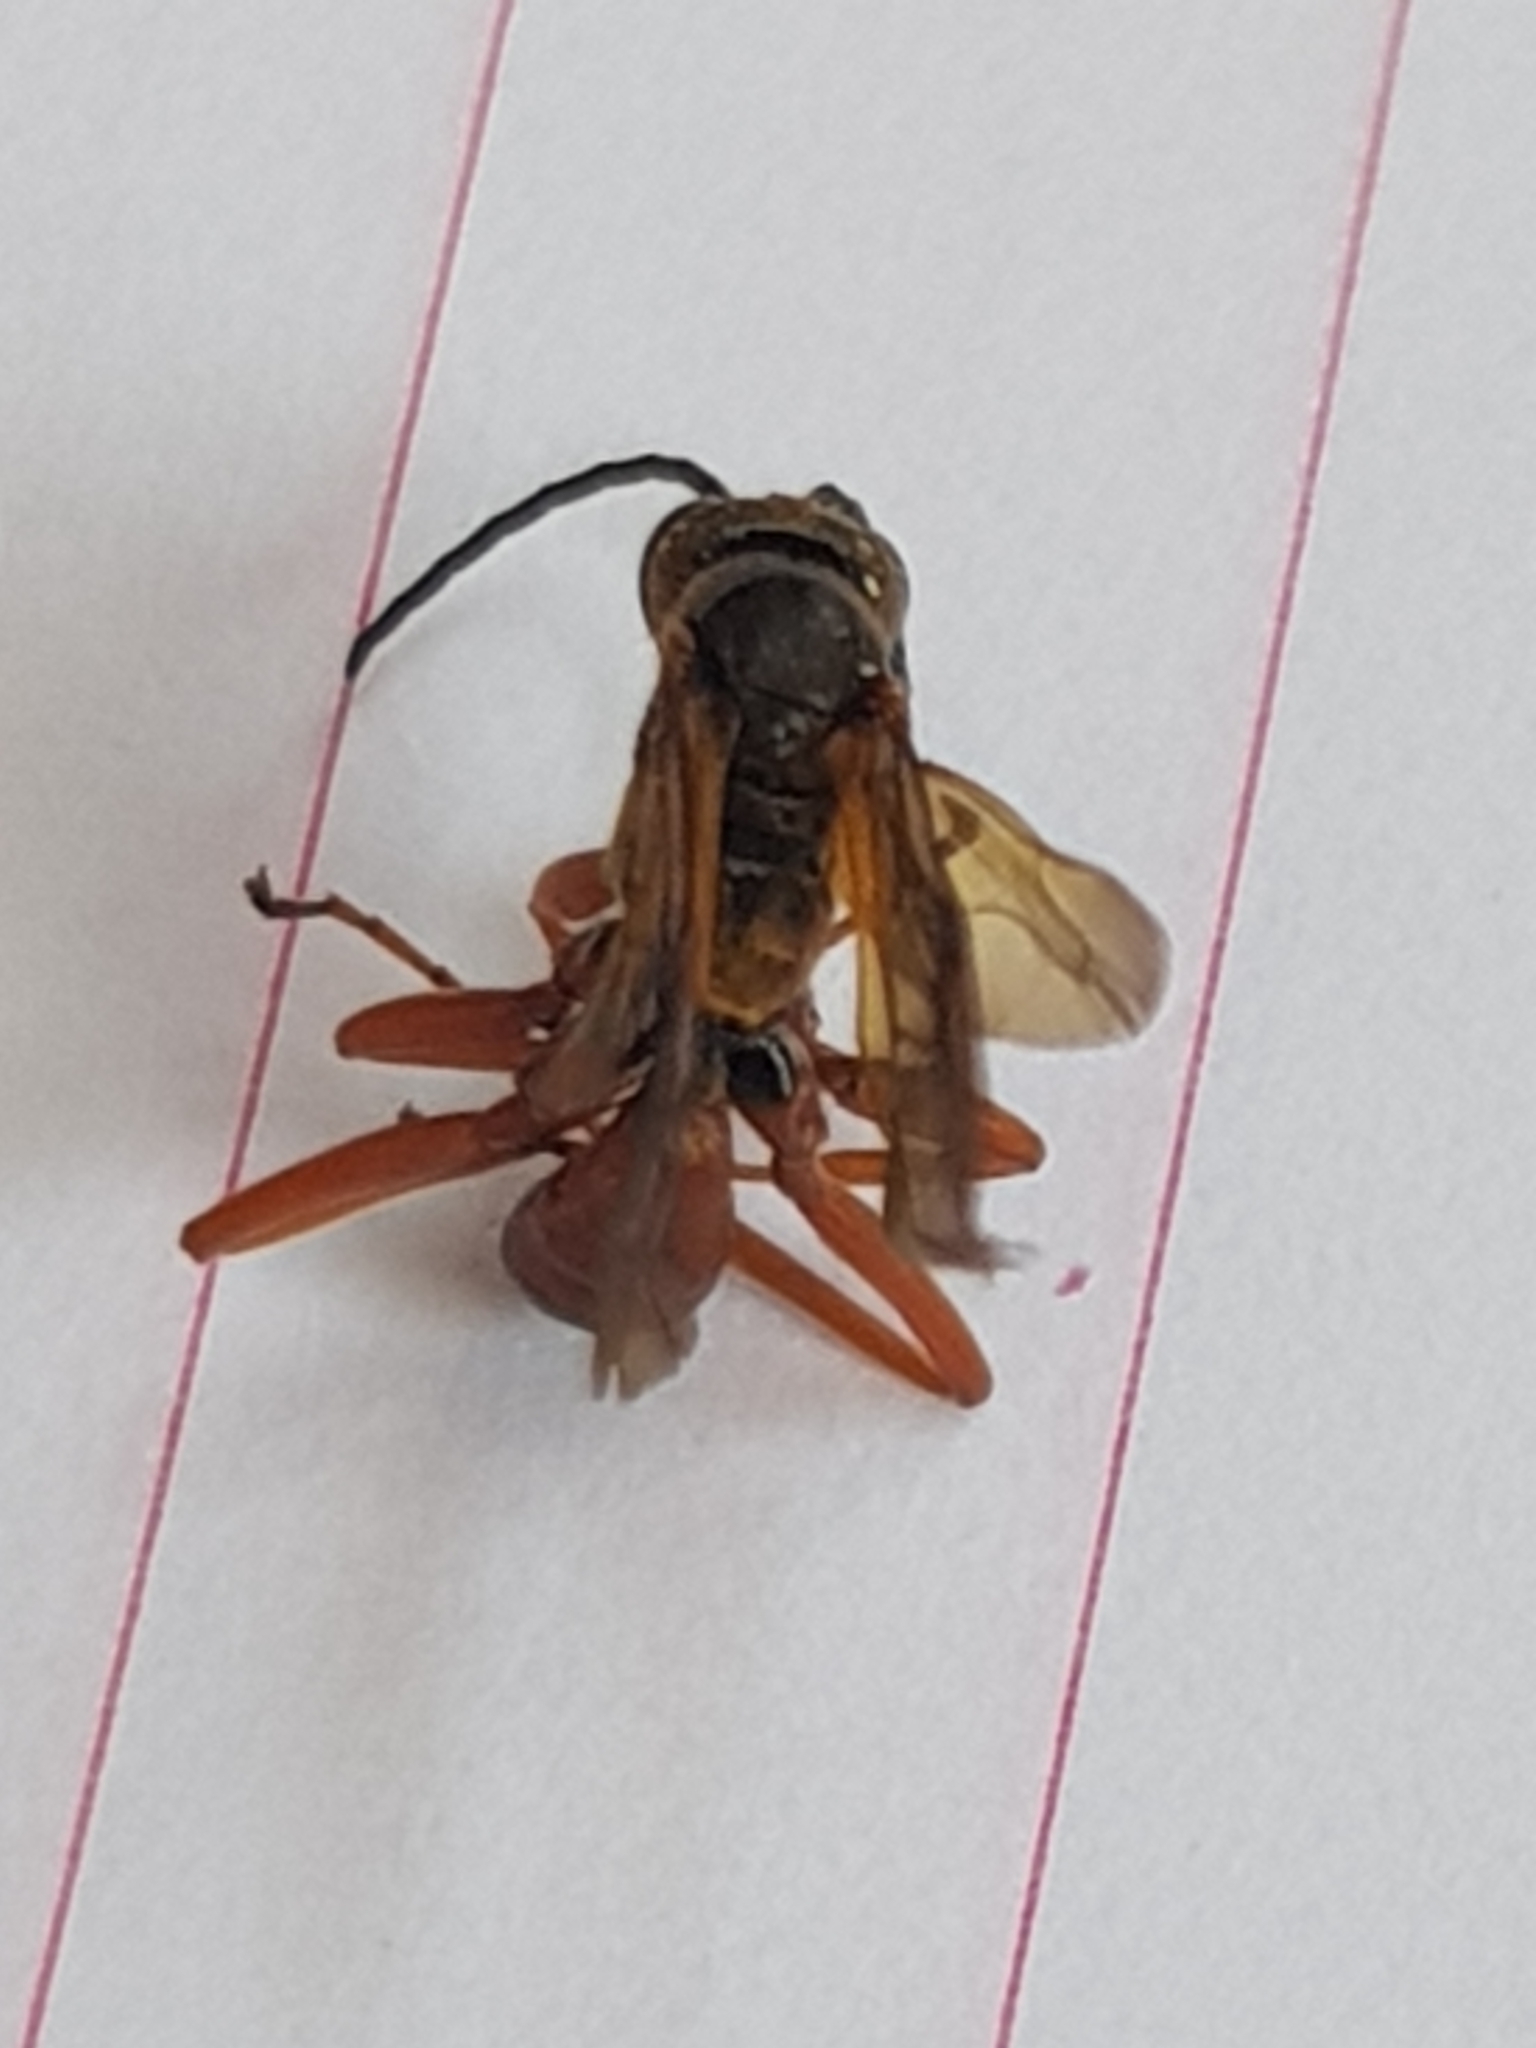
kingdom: Animalia
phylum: Arthropoda
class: Insecta
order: Hymenoptera
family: Pompilidae
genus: Sphictostethus
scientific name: Sphictostethus calvus
